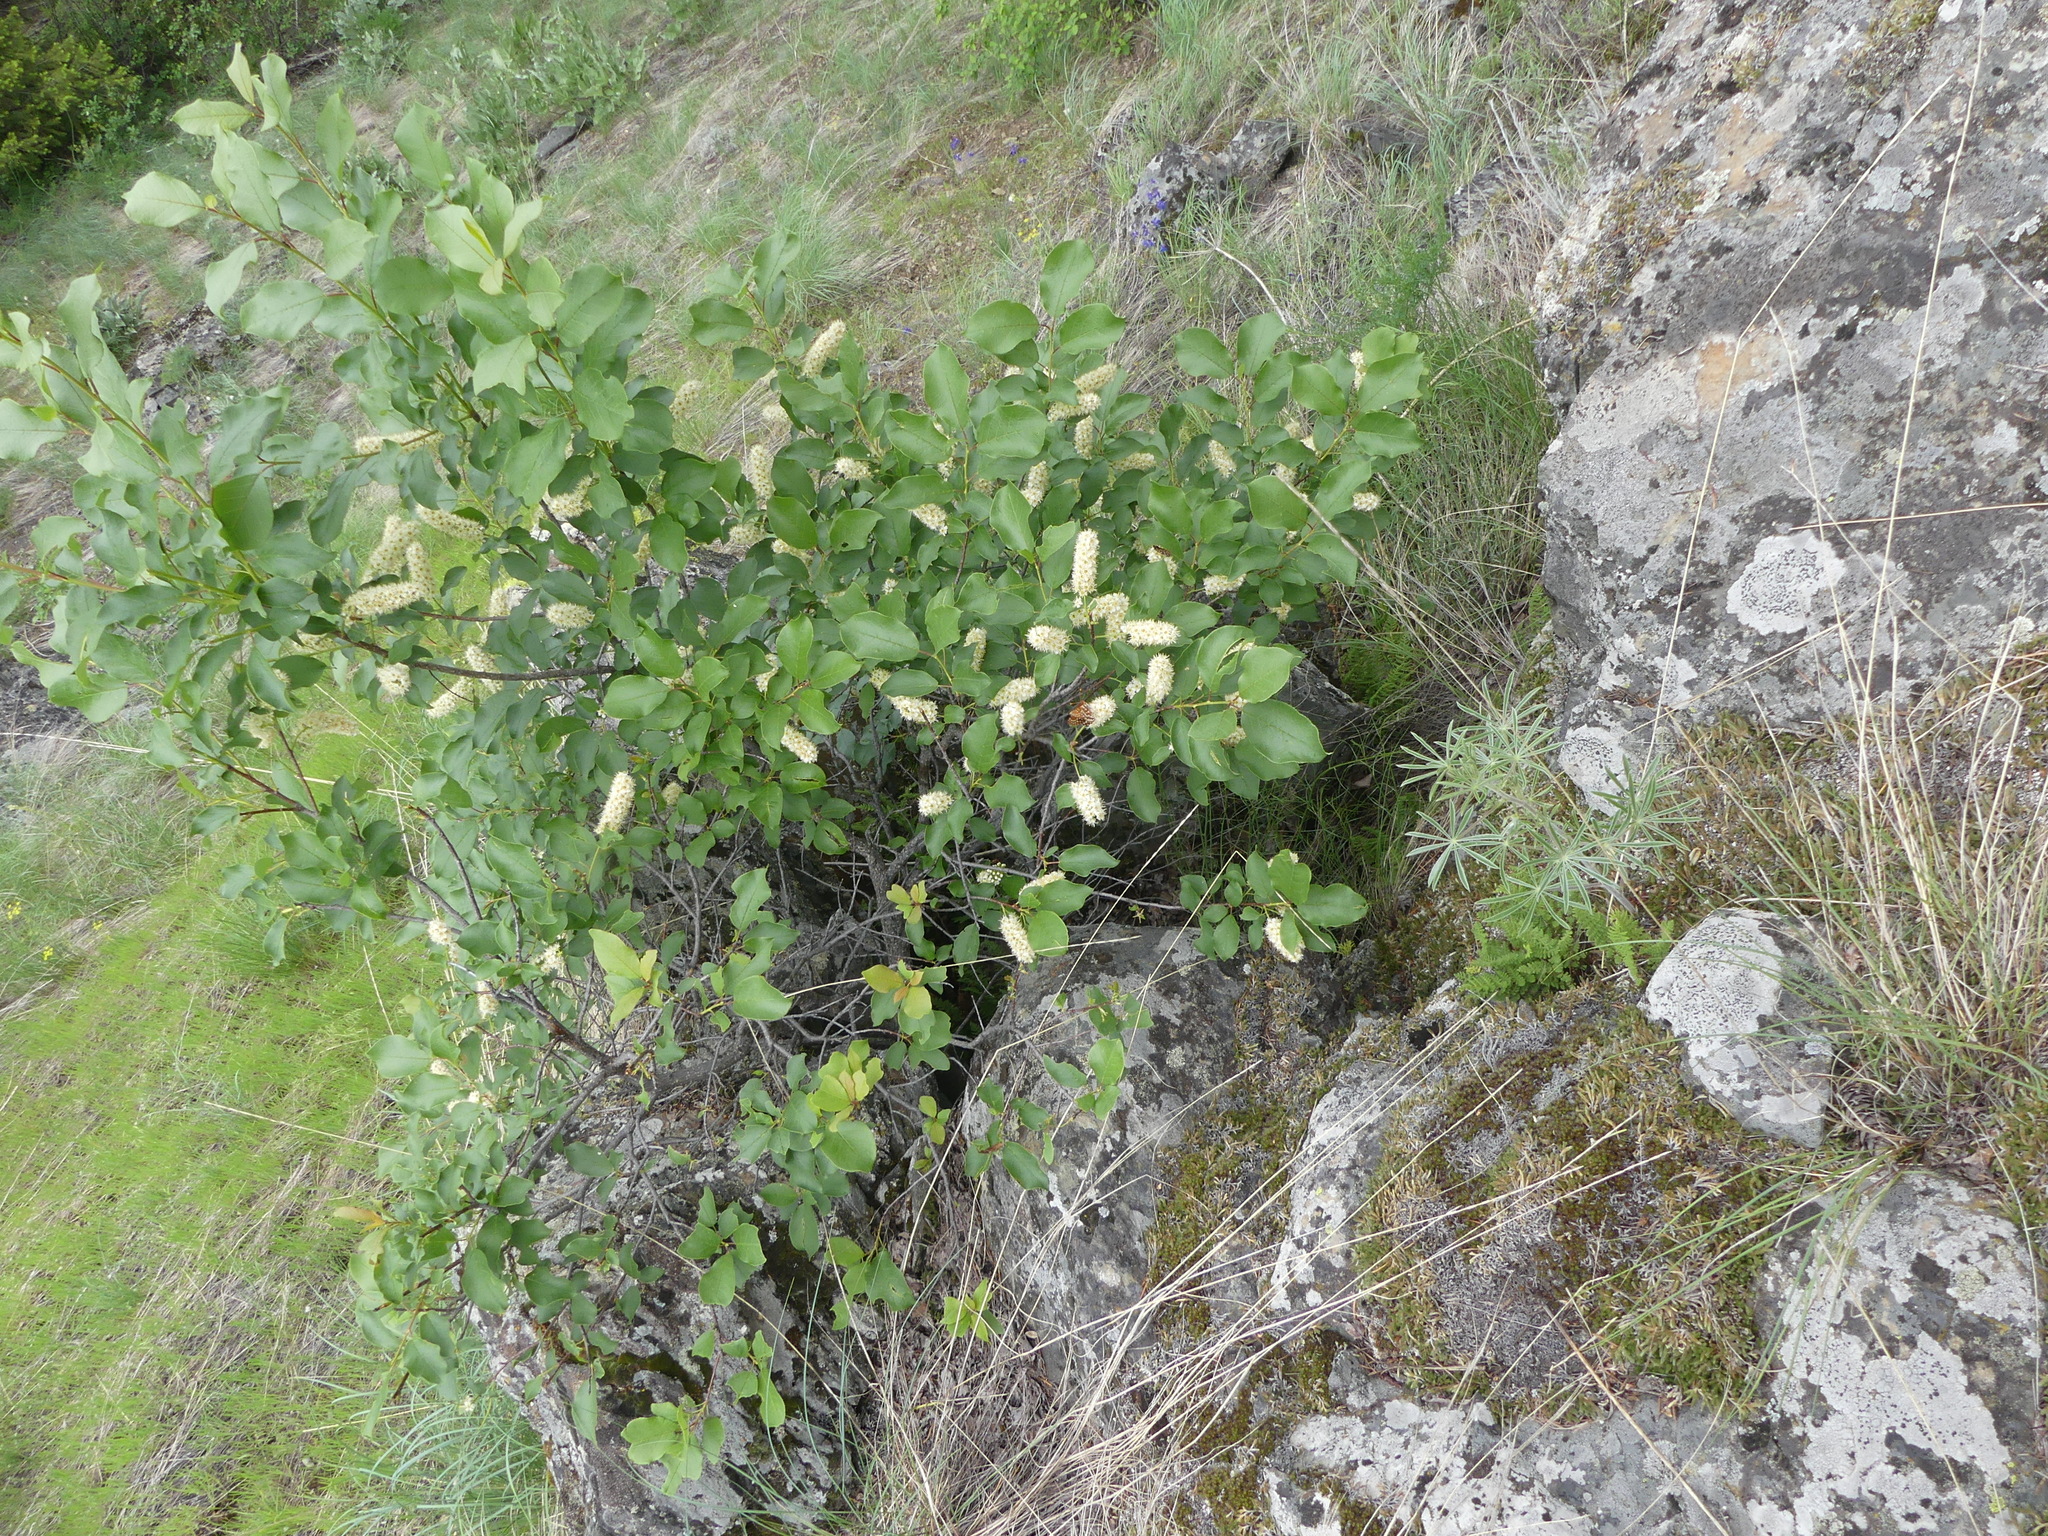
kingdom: Plantae
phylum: Tracheophyta
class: Magnoliopsida
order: Rosales
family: Rosaceae
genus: Prunus
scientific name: Prunus virginiana
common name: Chokecherry
